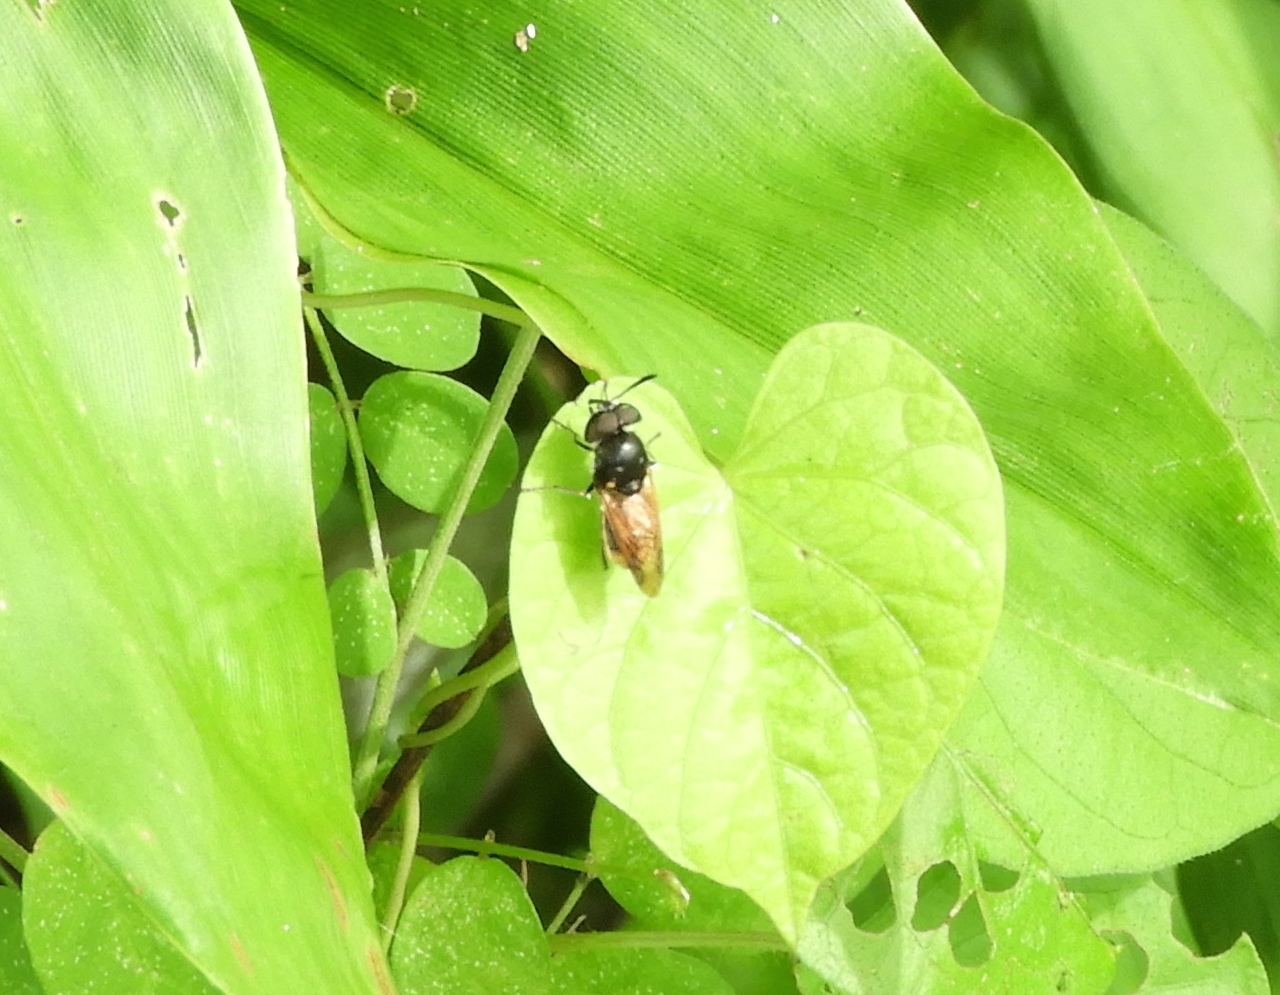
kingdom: Animalia
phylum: Arthropoda
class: Insecta
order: Diptera
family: Stratiomyidae
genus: Hoplitimyia
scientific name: Hoplitimyia
